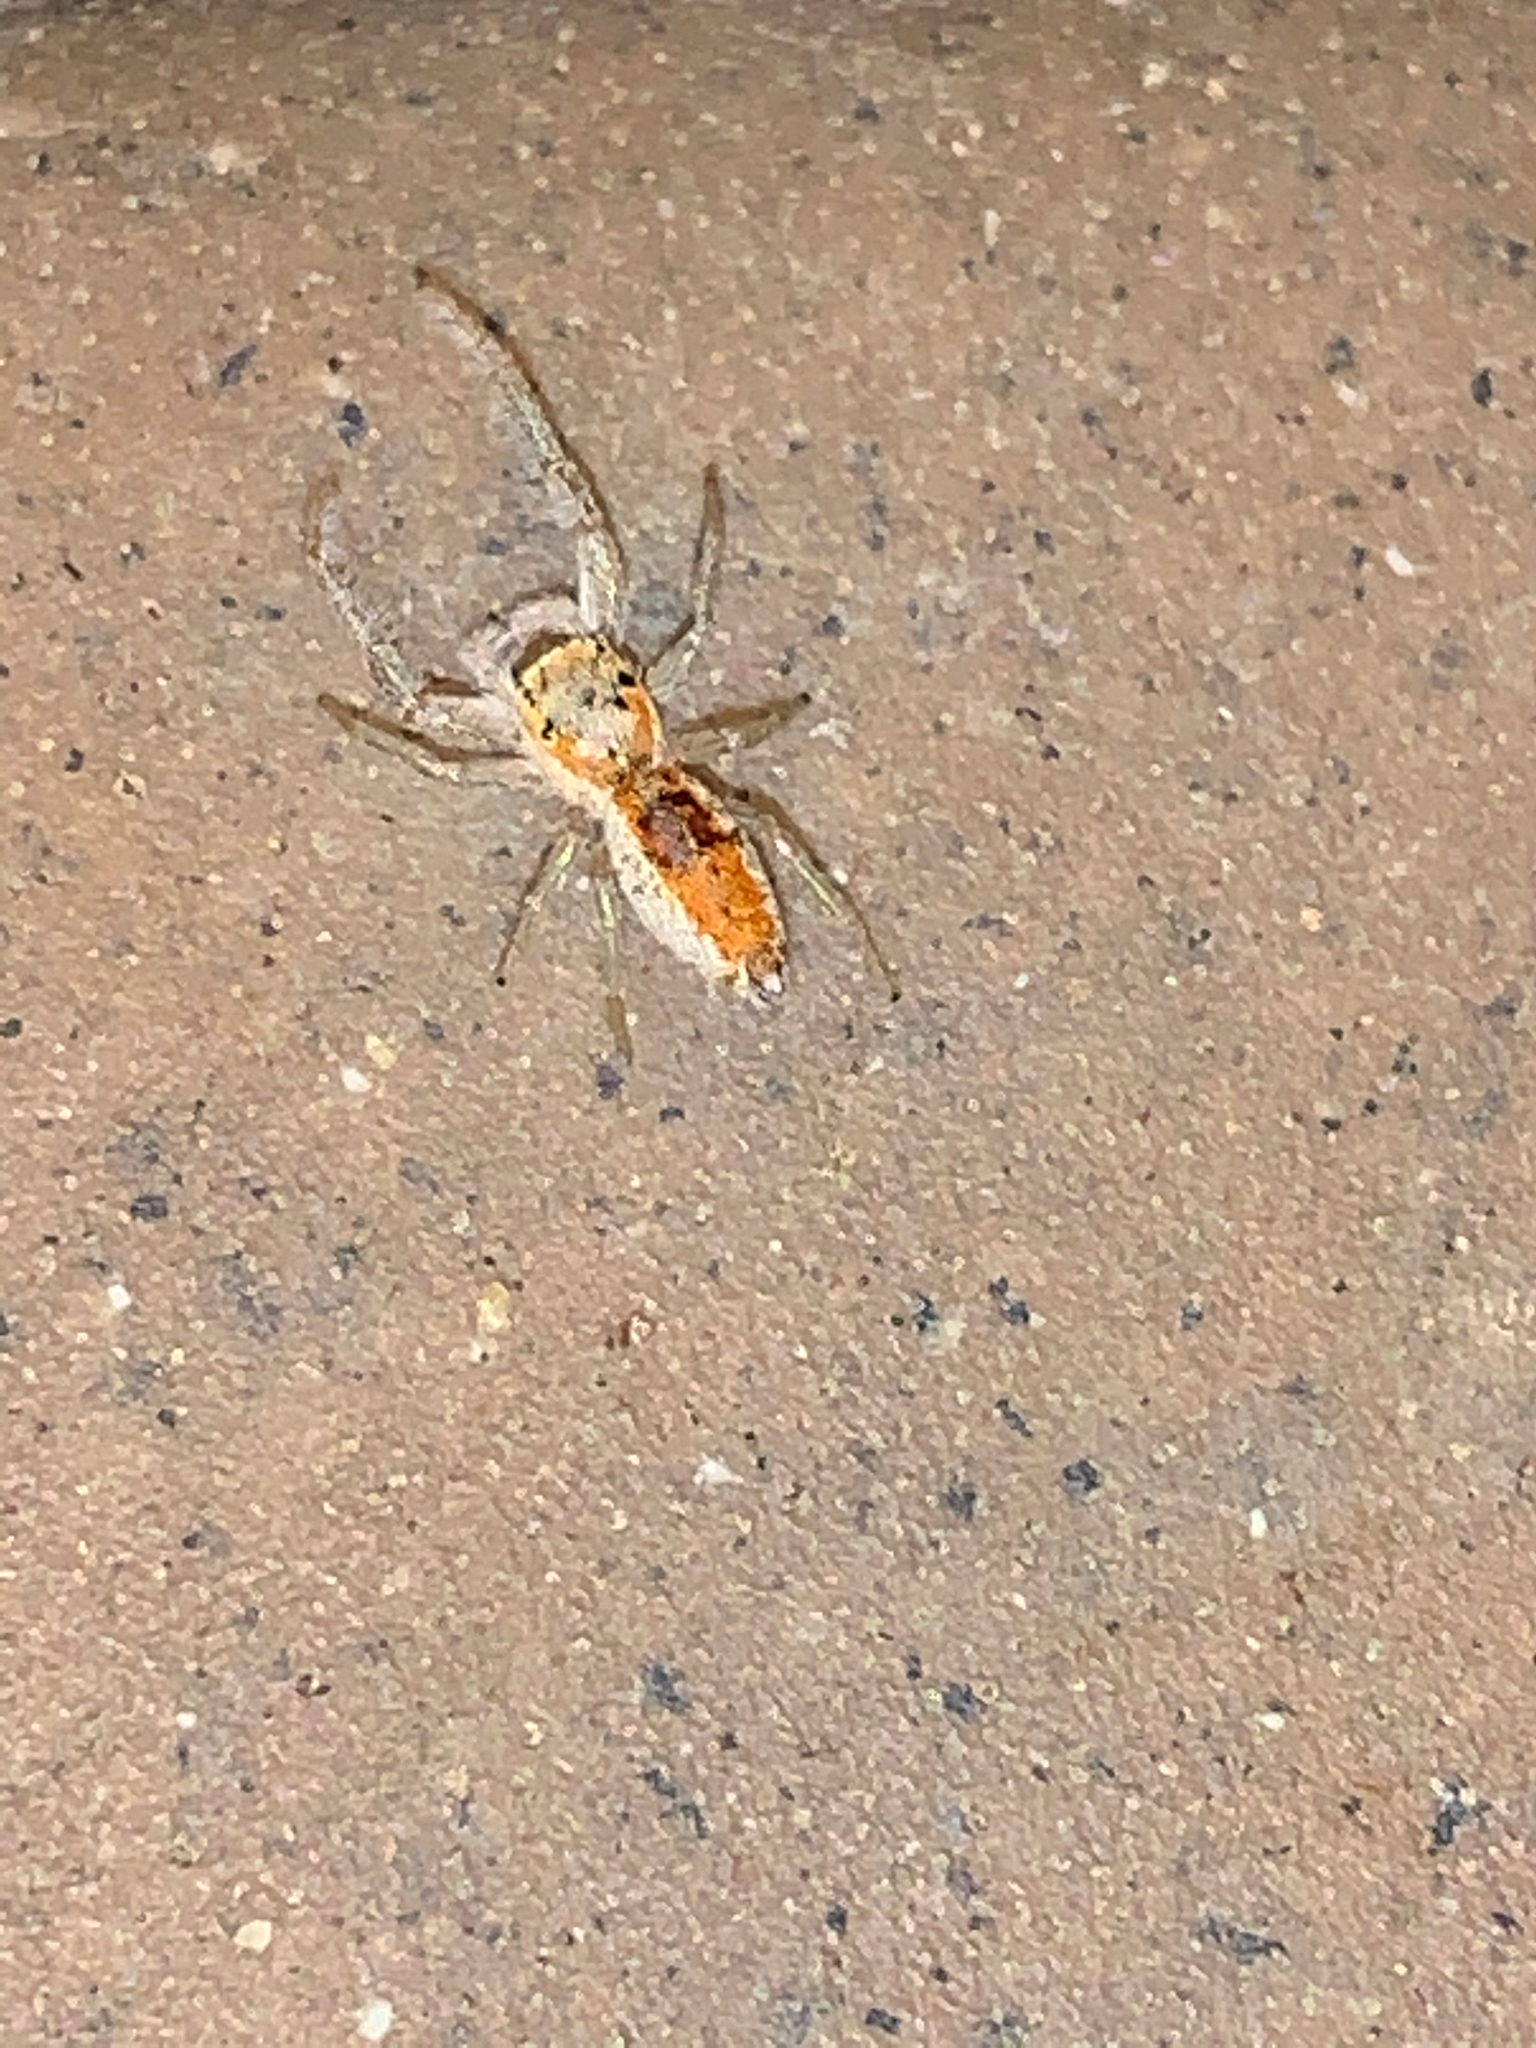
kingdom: Animalia
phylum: Arthropoda
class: Arachnida
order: Araneae
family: Salticidae
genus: Hentzia
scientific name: Hentzia mitrata
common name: White-jawed jumping spider
